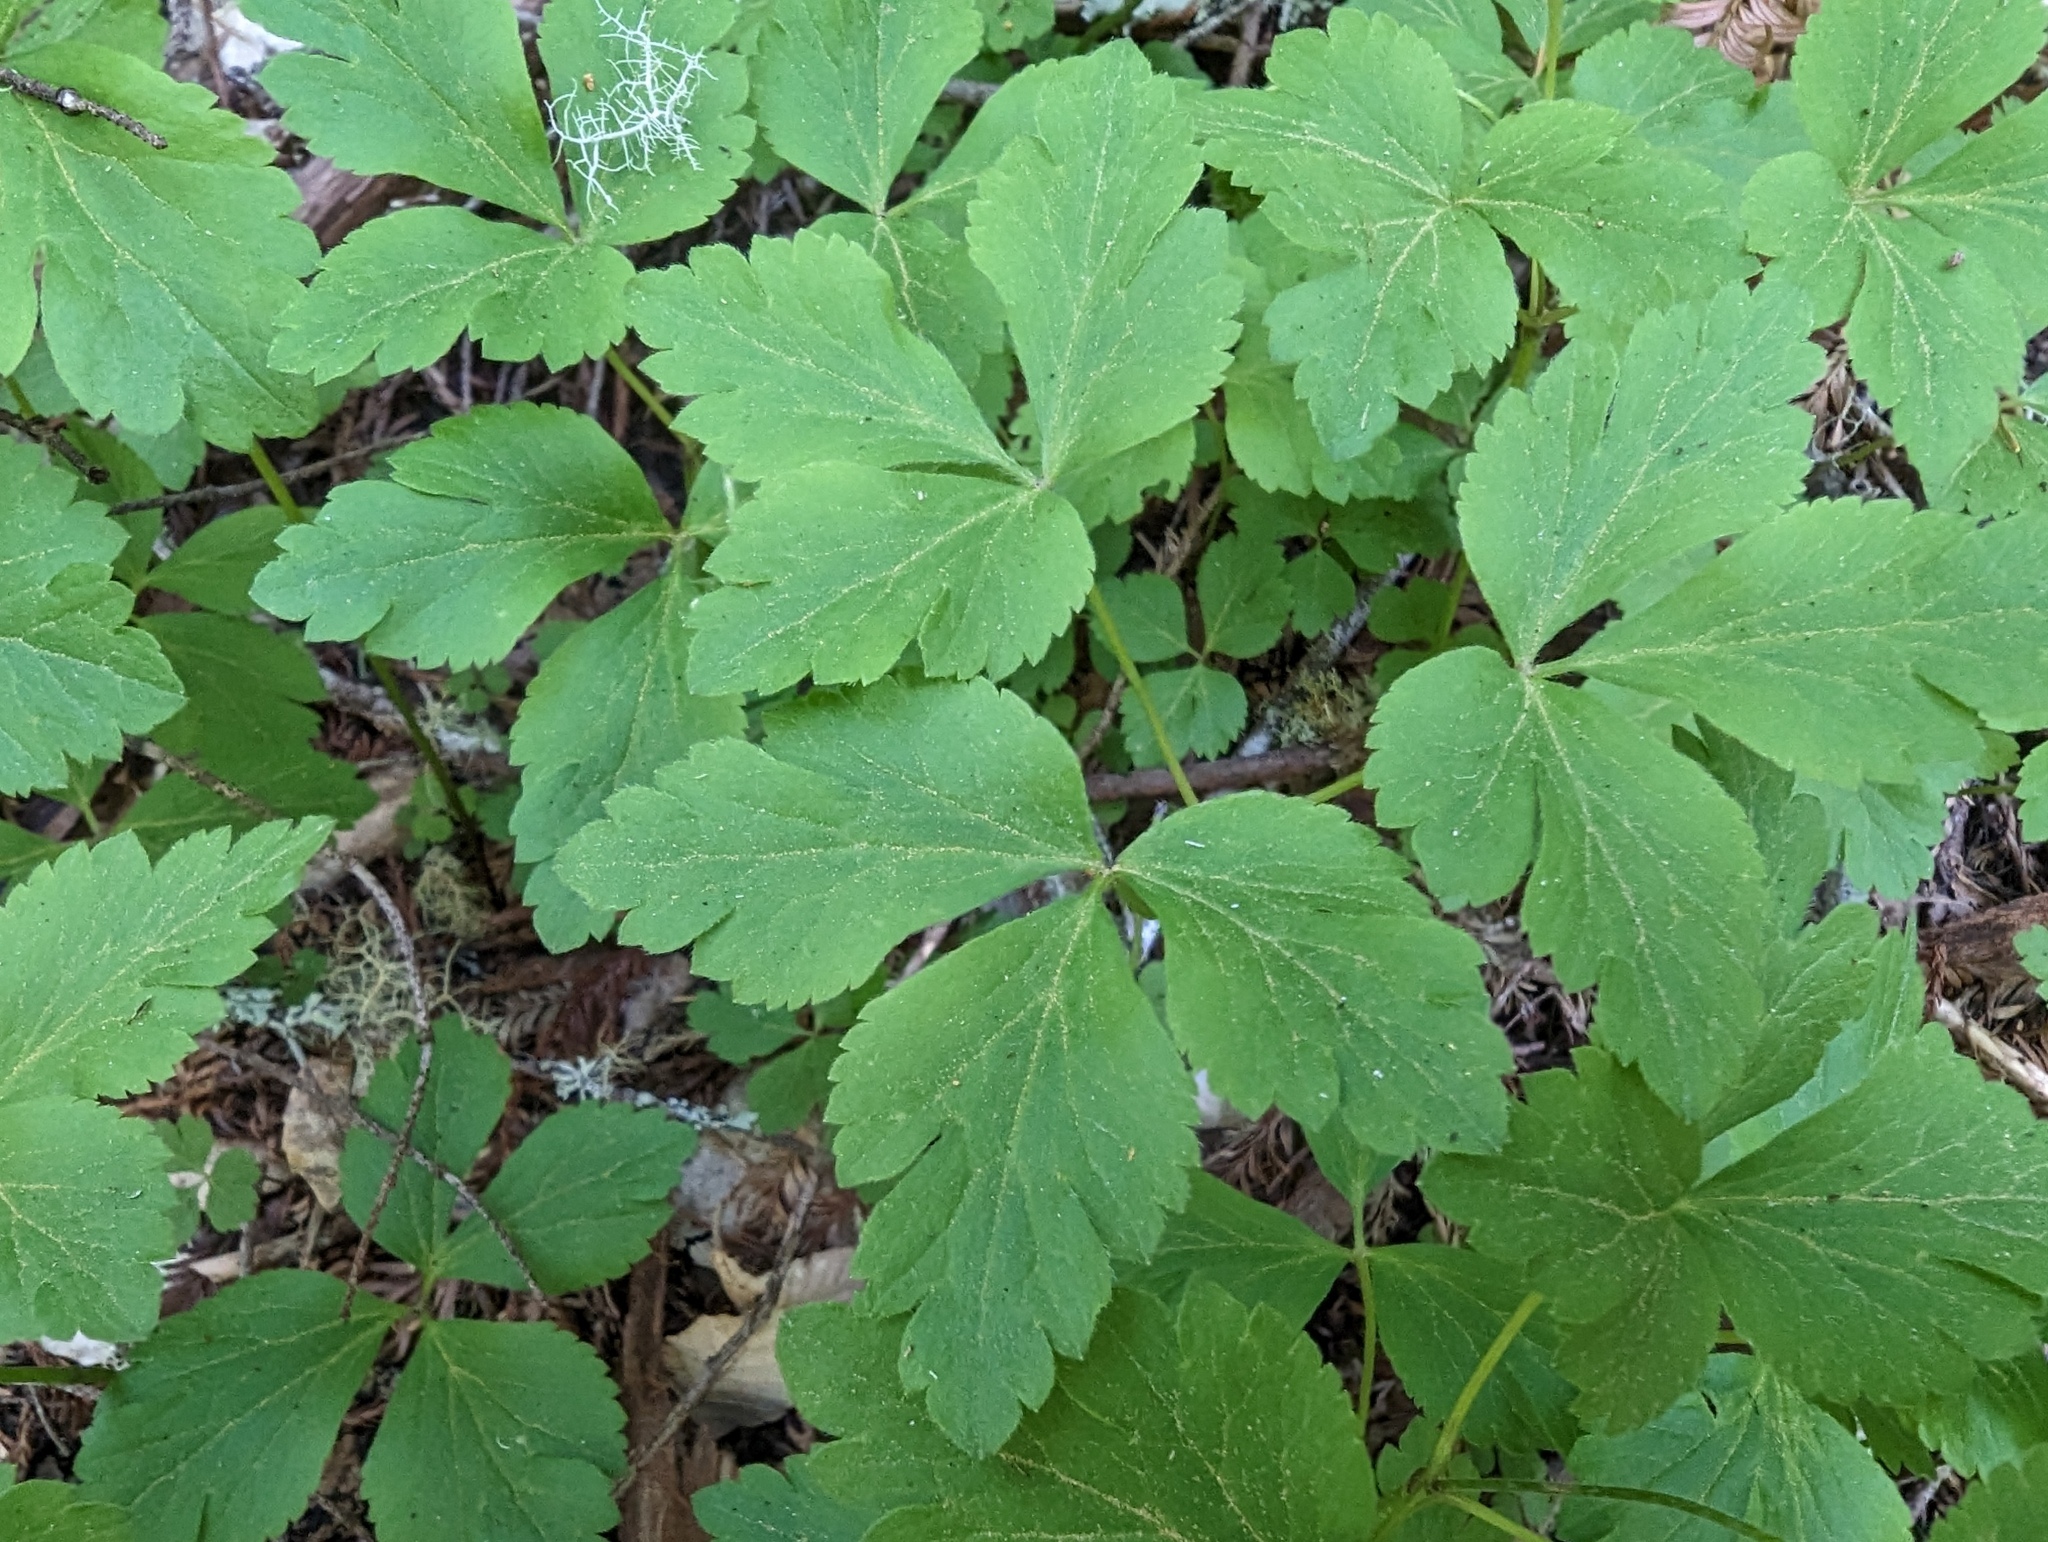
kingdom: Plantae
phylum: Tracheophyta
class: Magnoliopsida
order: Ranunculales
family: Ranunculaceae
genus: Anemone
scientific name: Anemone
